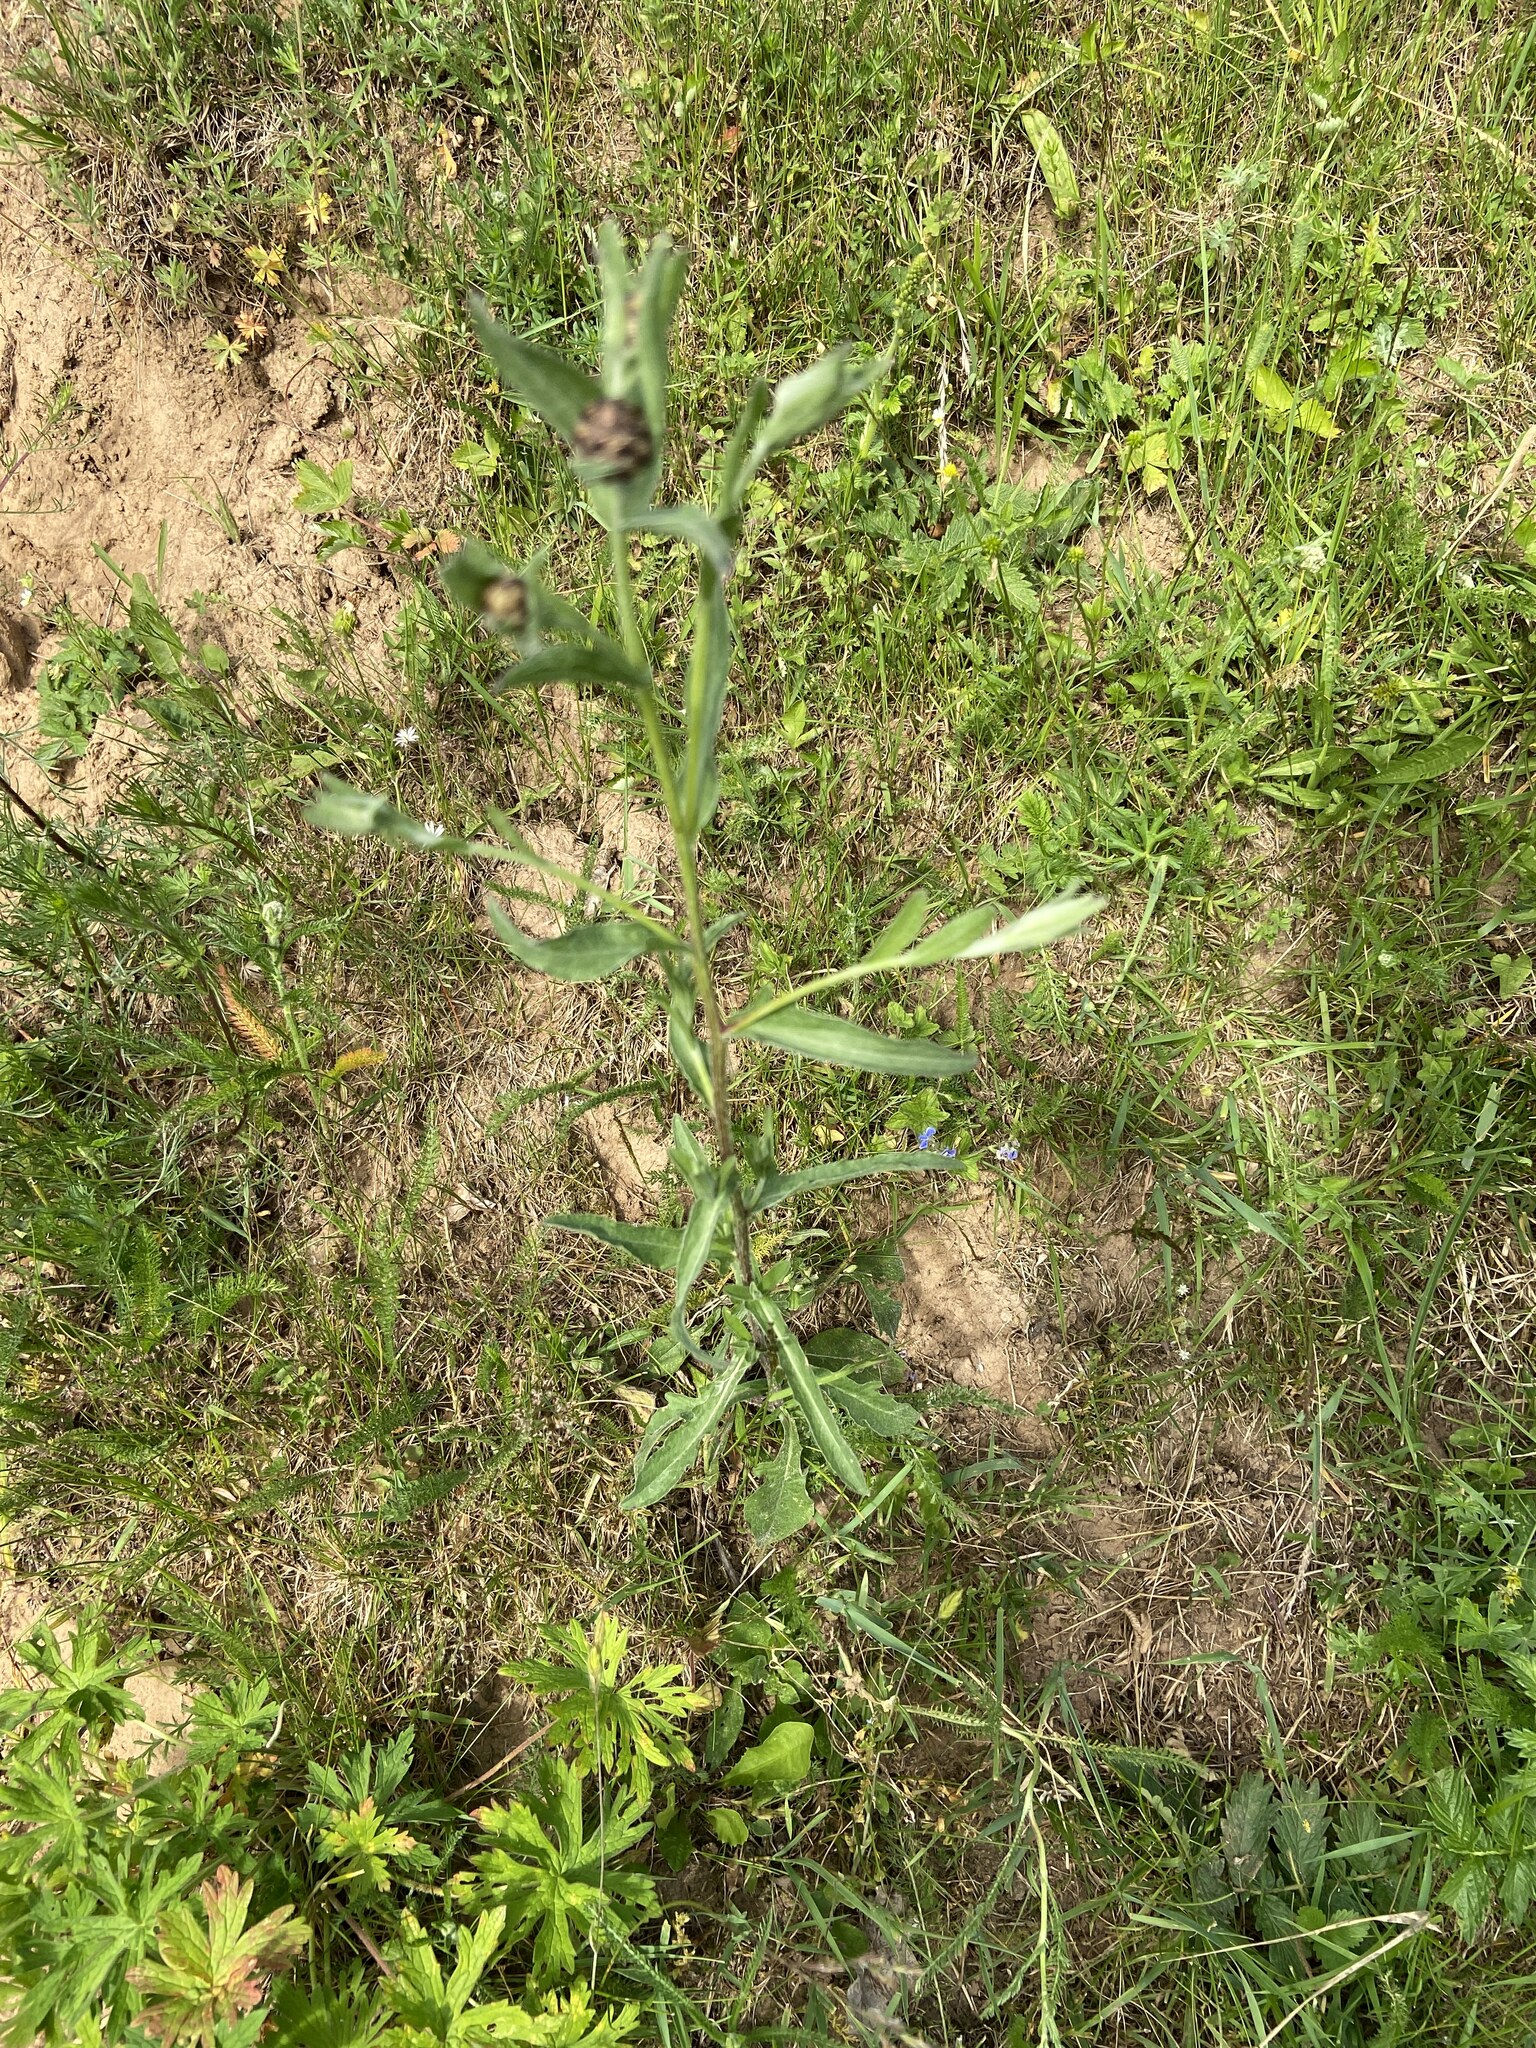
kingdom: Plantae
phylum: Tracheophyta
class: Magnoliopsida
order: Asterales
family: Asteraceae
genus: Centaurea
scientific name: Centaurea jacea
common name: Brown knapweed
